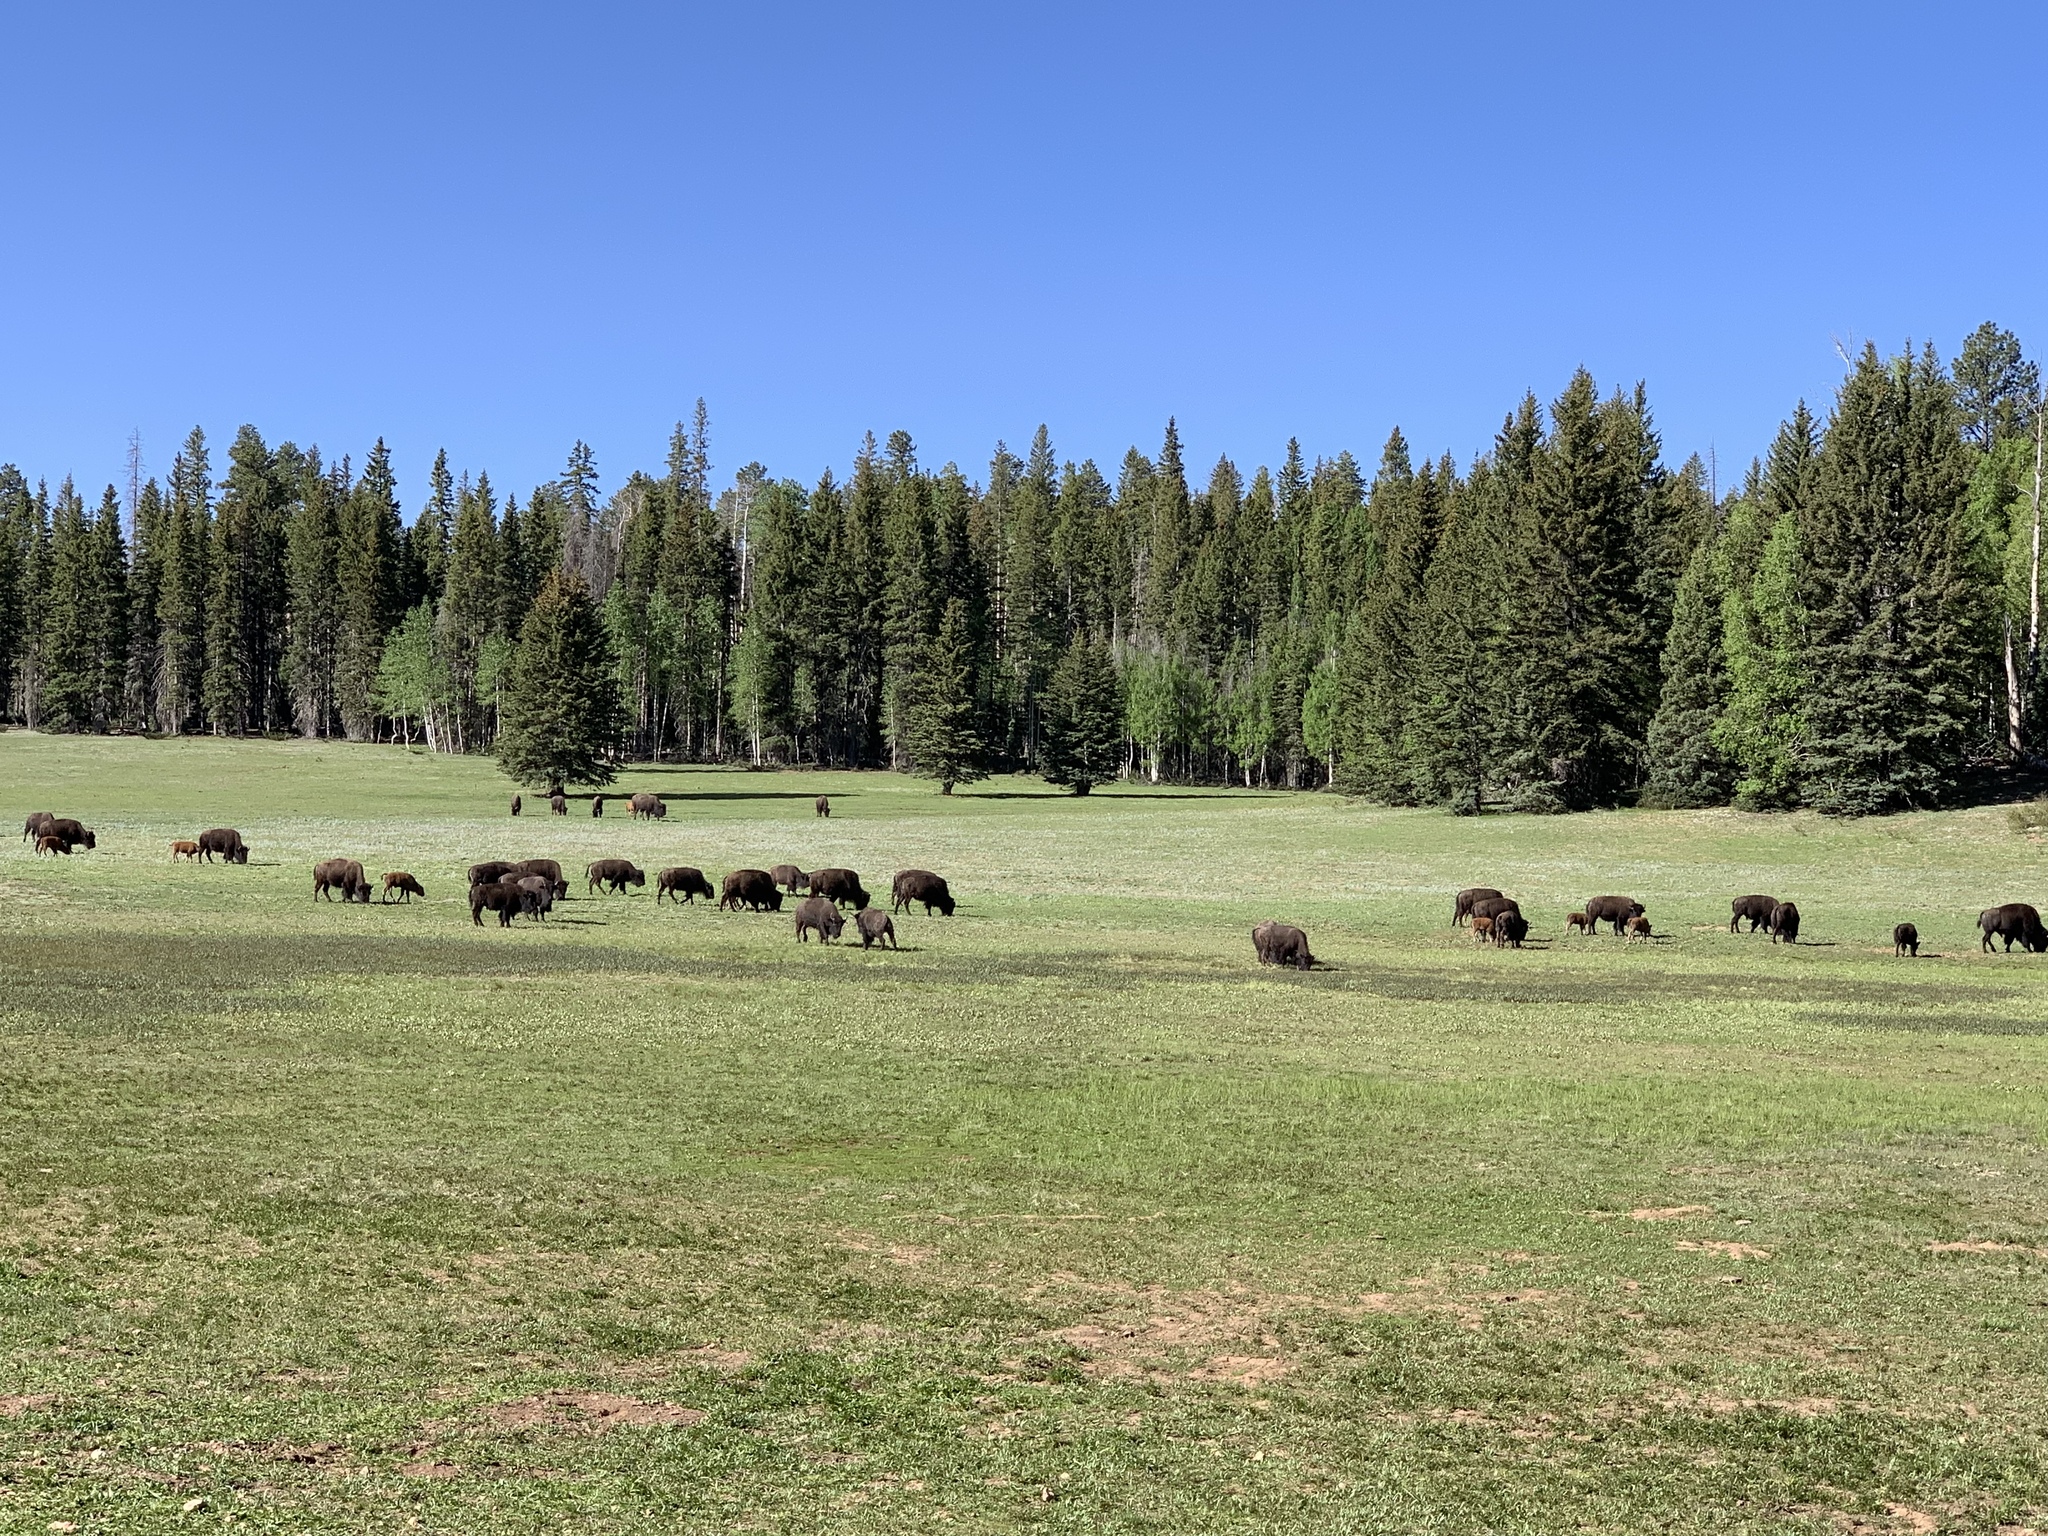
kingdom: Animalia
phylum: Chordata
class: Mammalia
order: Artiodactyla
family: Bovidae
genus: Bison
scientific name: Bison bison
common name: American bison
